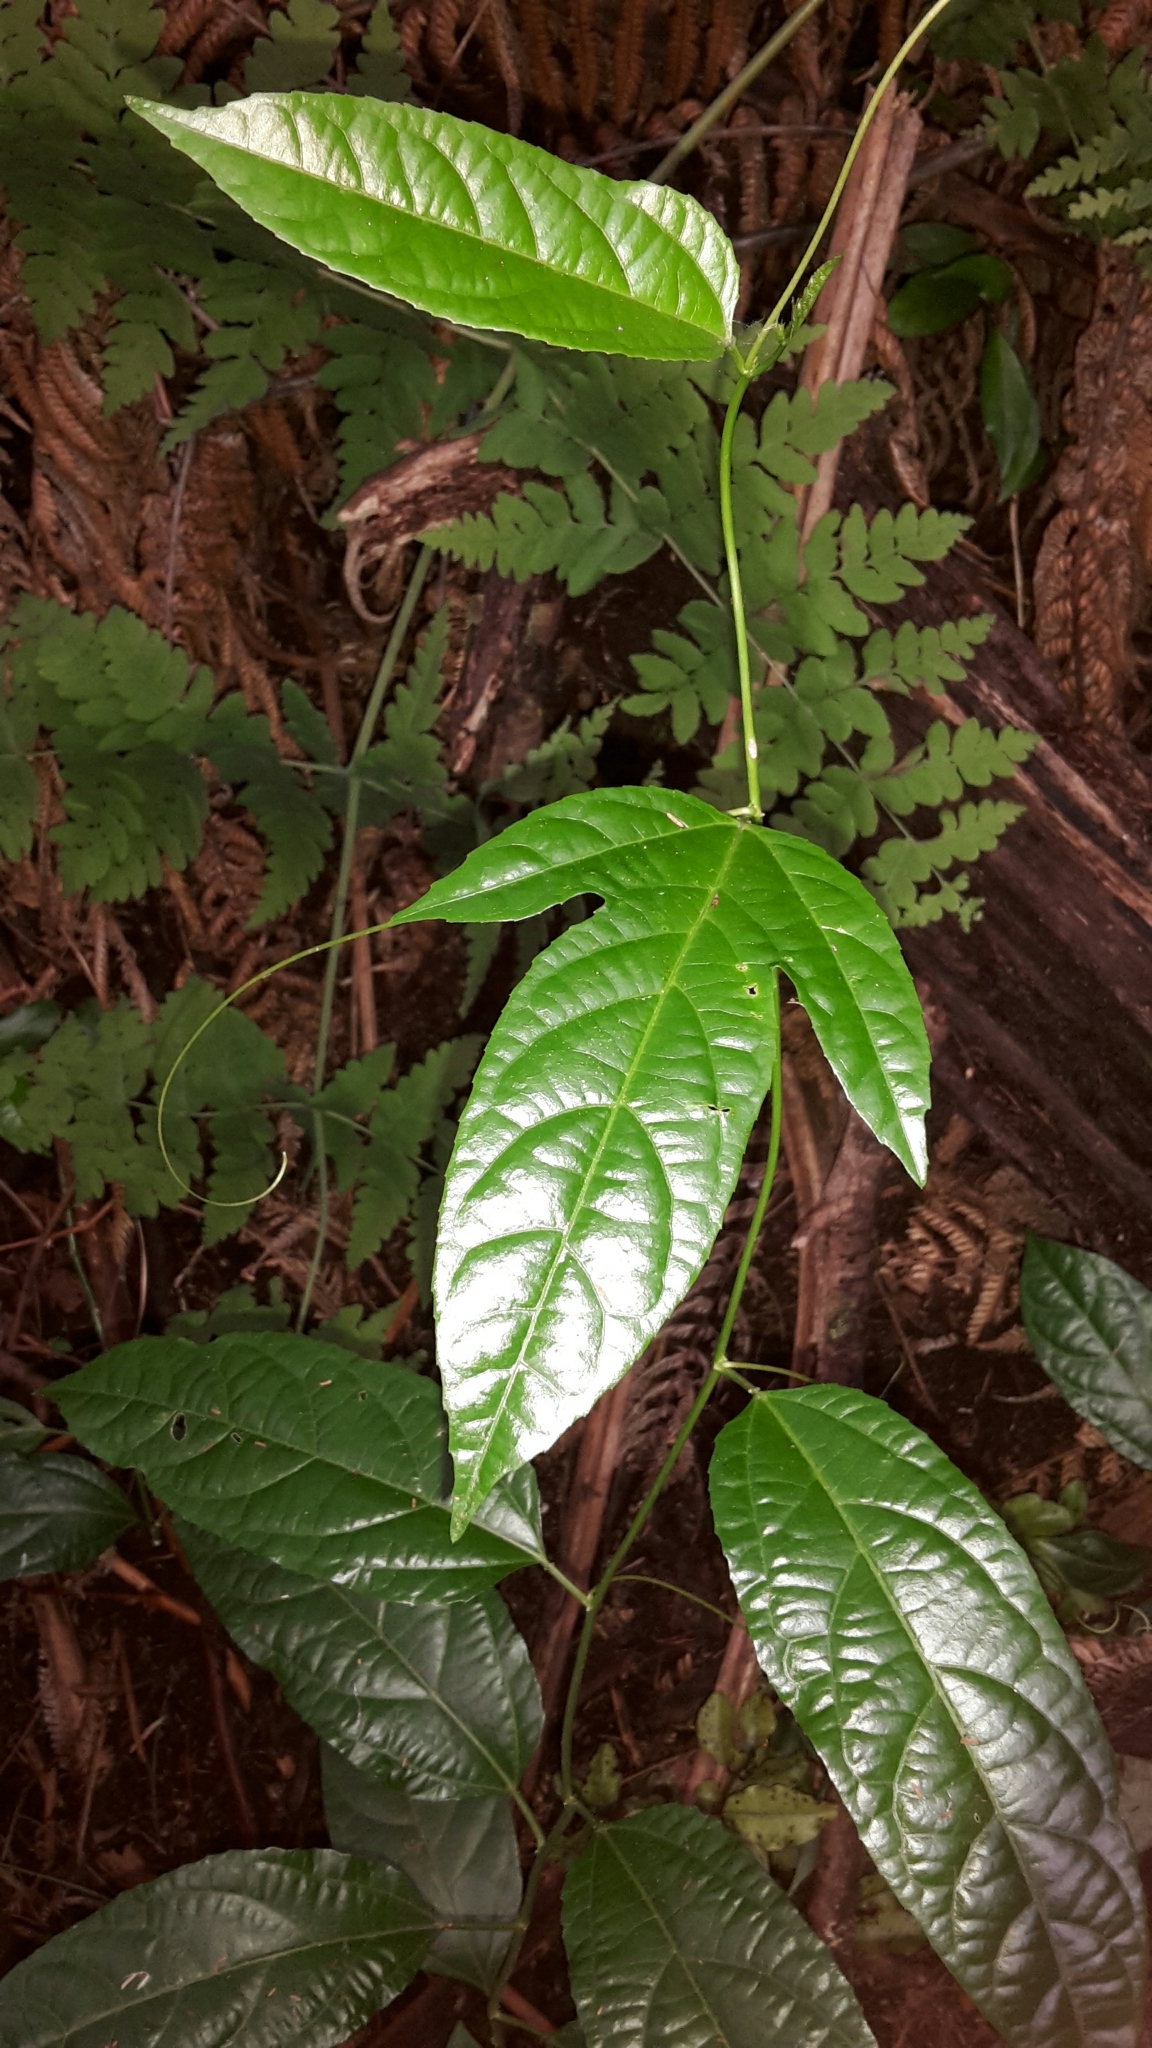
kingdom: Plantae
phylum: Tracheophyta
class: Magnoliopsida
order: Malpighiales
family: Passifloraceae
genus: Passiflora
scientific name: Passiflora edulis
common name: Purple granadilla
